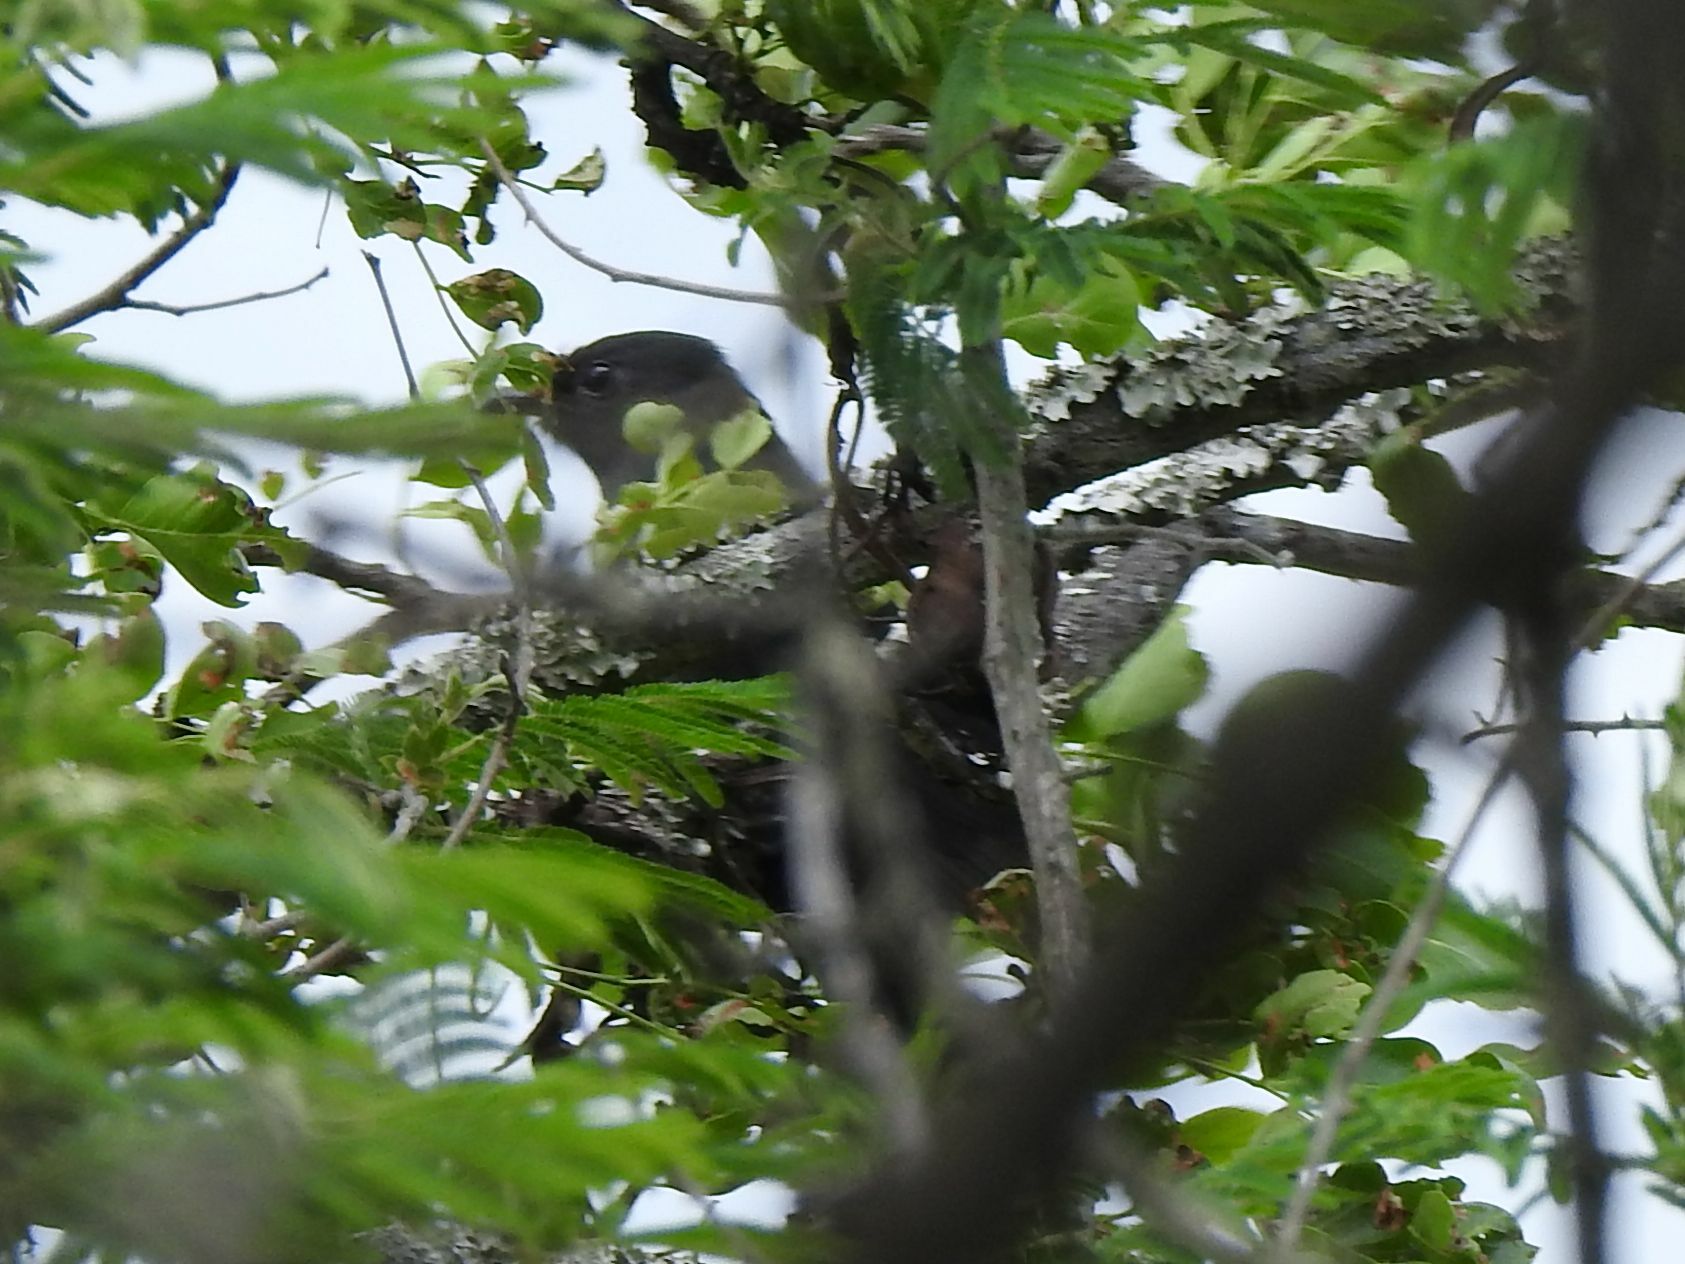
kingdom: Animalia
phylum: Chordata
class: Aves
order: Cuculiformes
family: Cuculidae
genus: Cuculus
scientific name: Cuculus clamosus
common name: Black cuckoo
